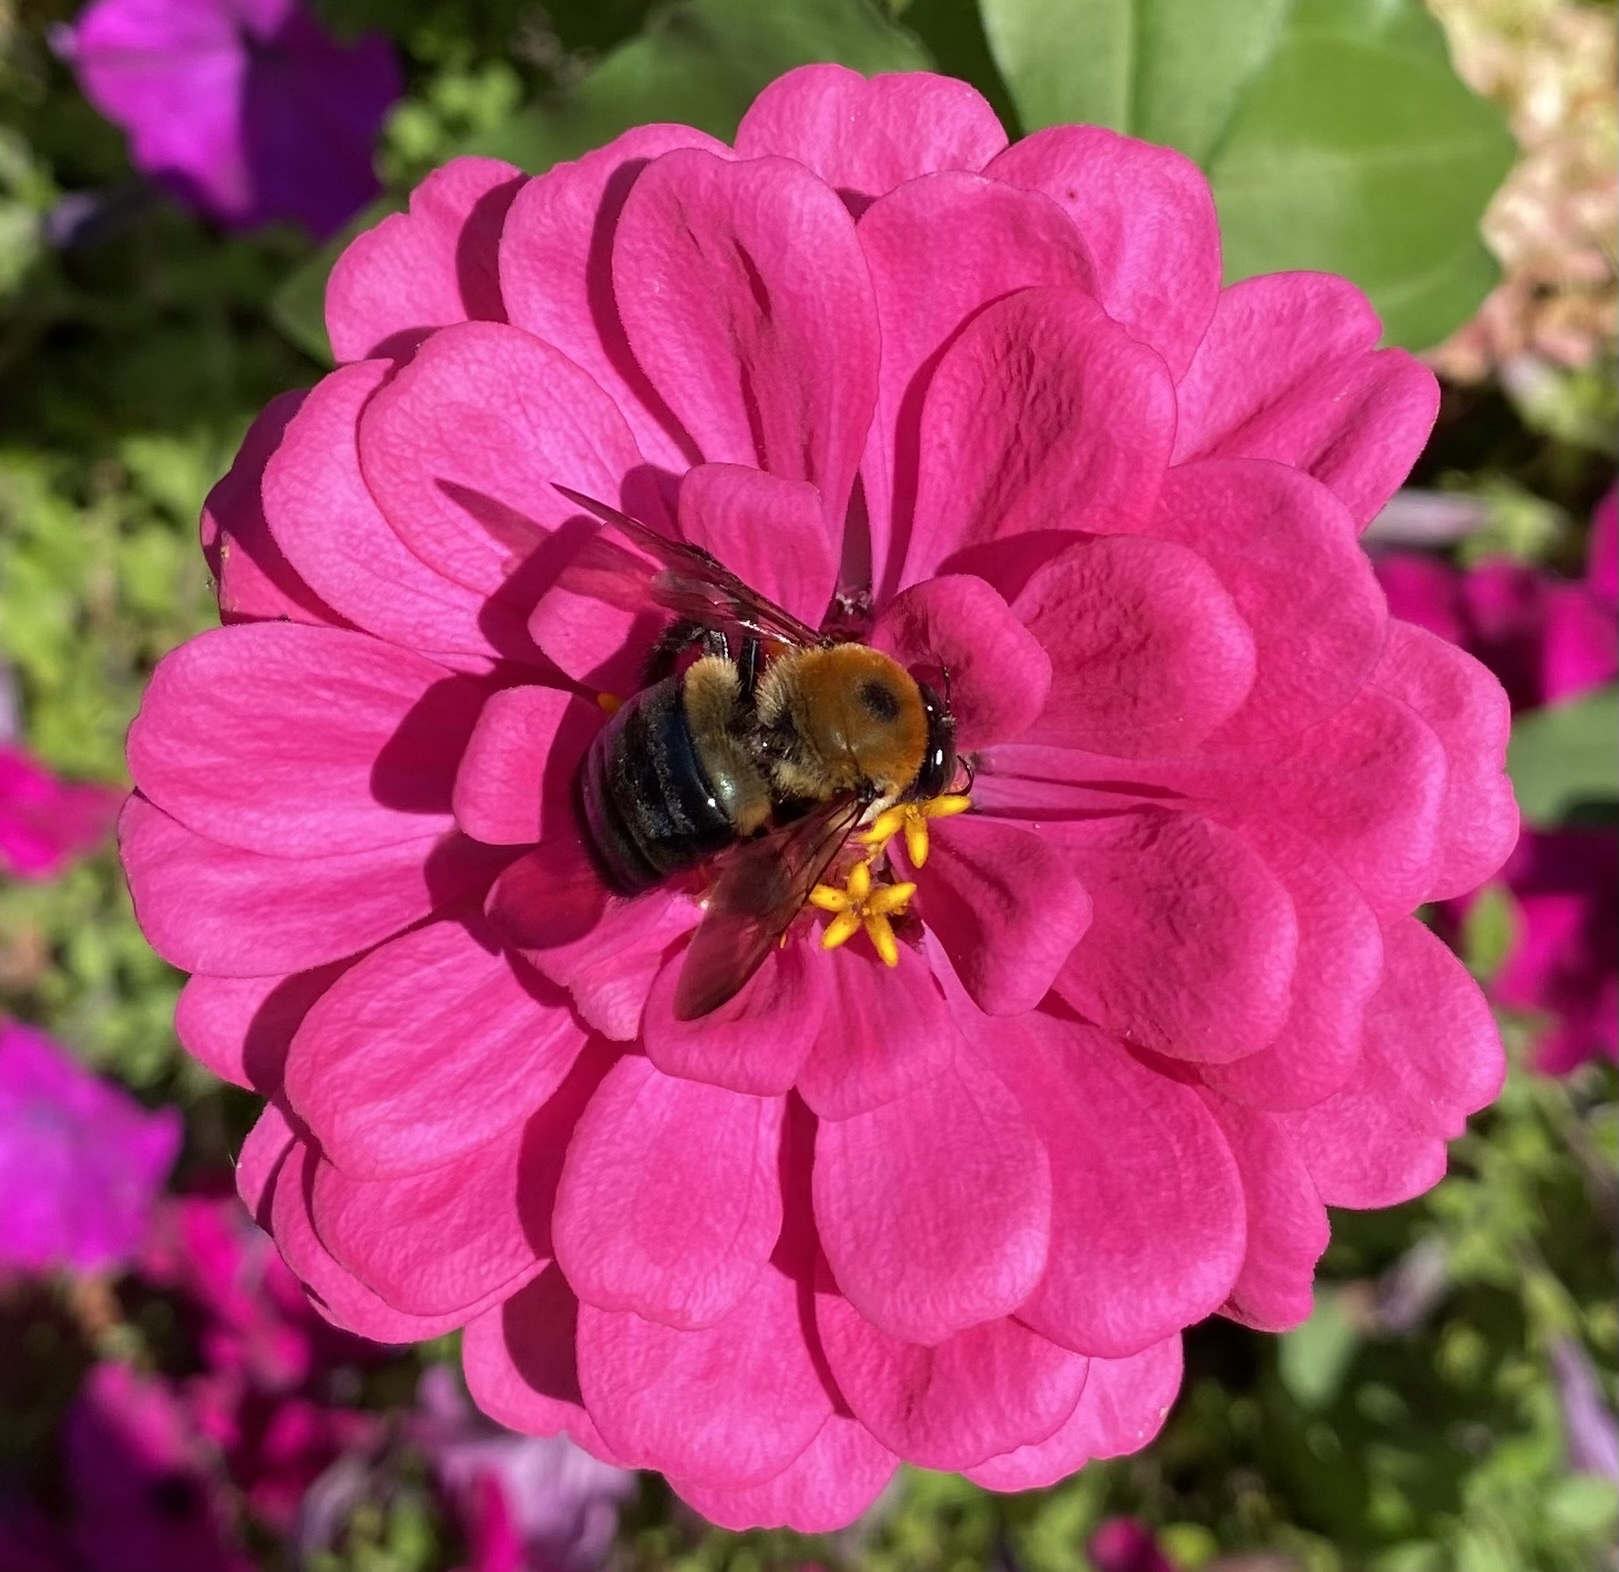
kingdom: Animalia
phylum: Arthropoda
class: Insecta
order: Hymenoptera
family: Apidae
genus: Xylocopa
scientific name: Xylocopa virginica
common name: Carpenter bee
